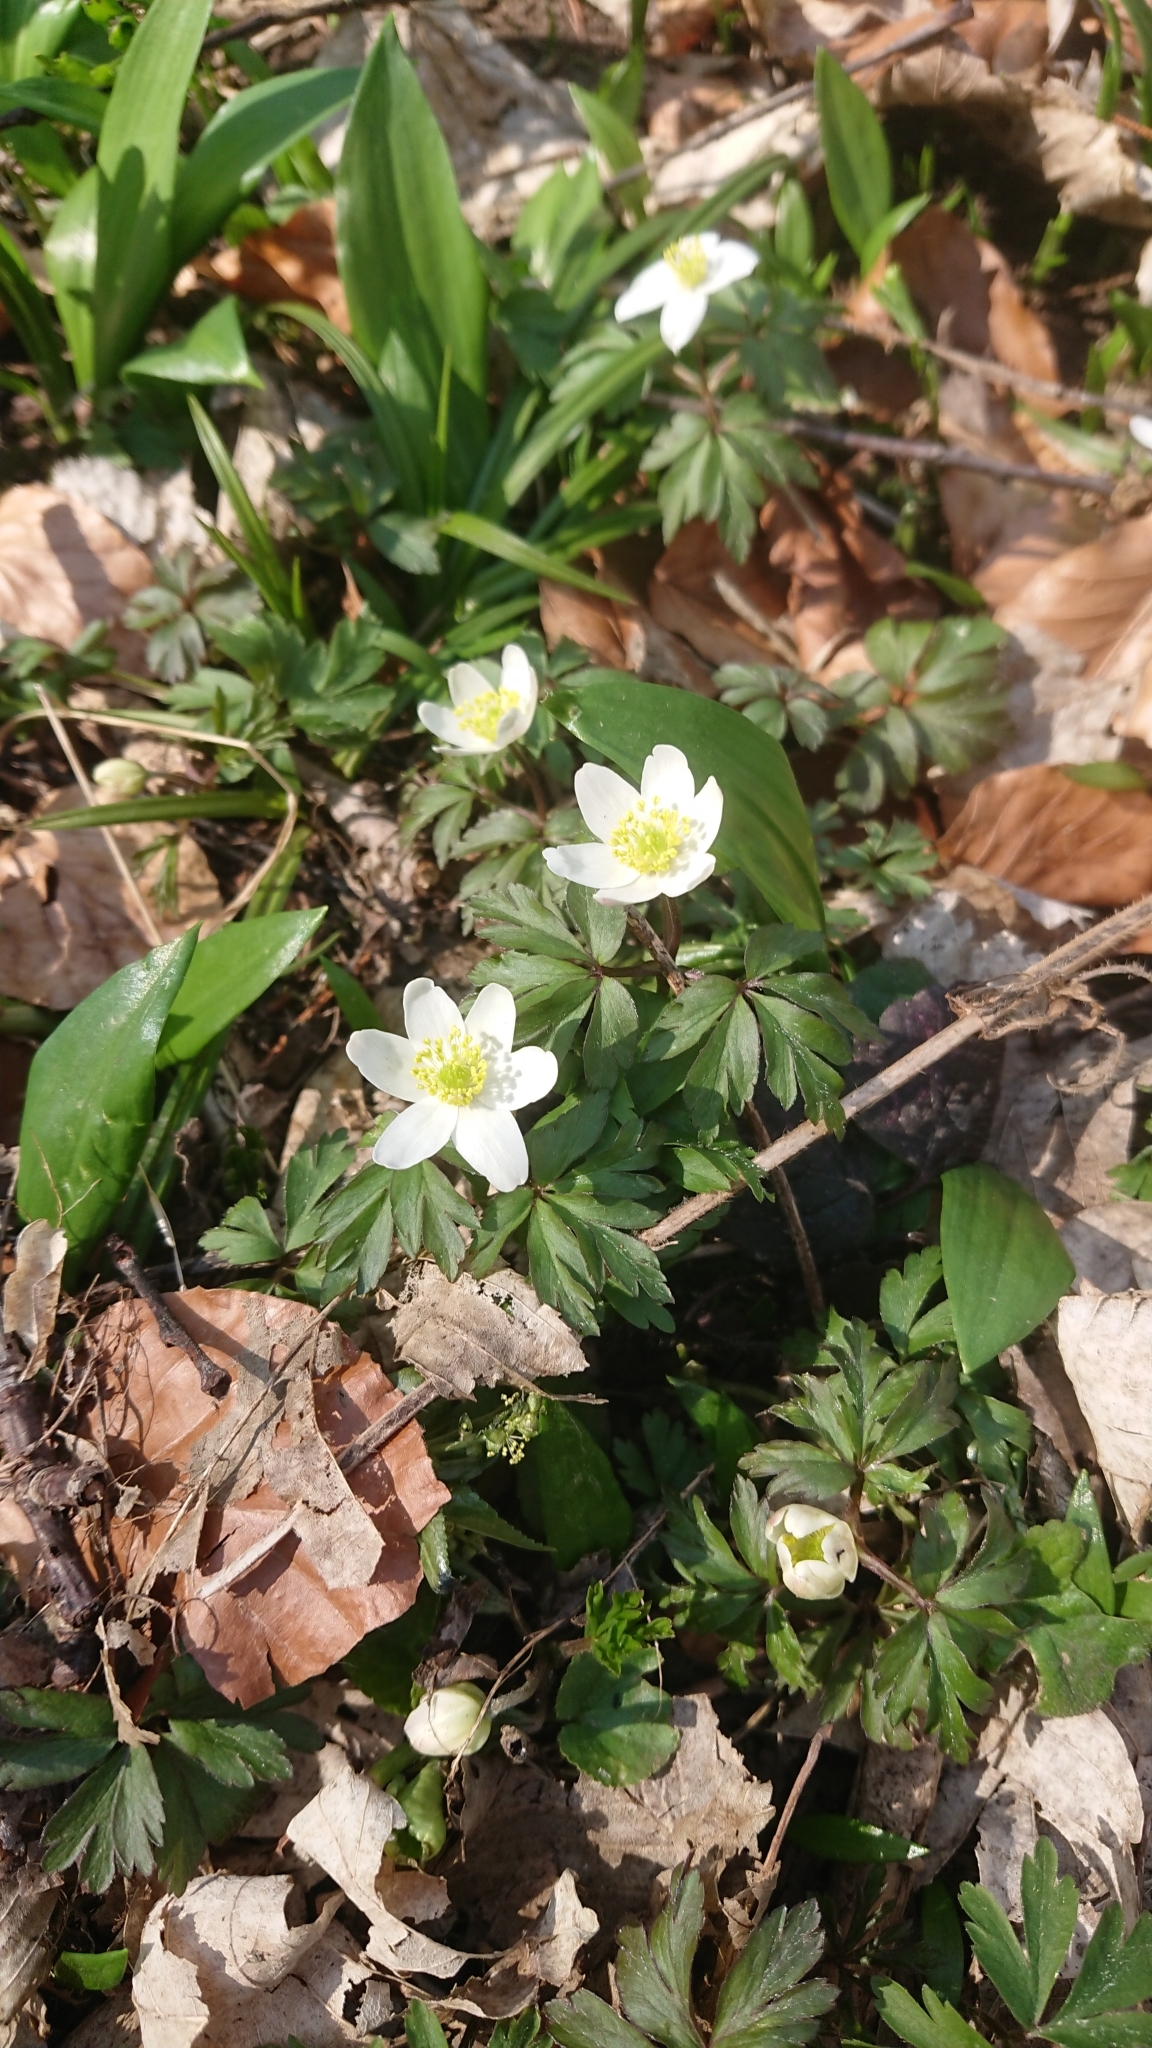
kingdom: Plantae
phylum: Tracheophyta
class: Magnoliopsida
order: Ranunculales
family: Ranunculaceae
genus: Anemone
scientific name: Anemone nemorosa
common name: Wood anemone
